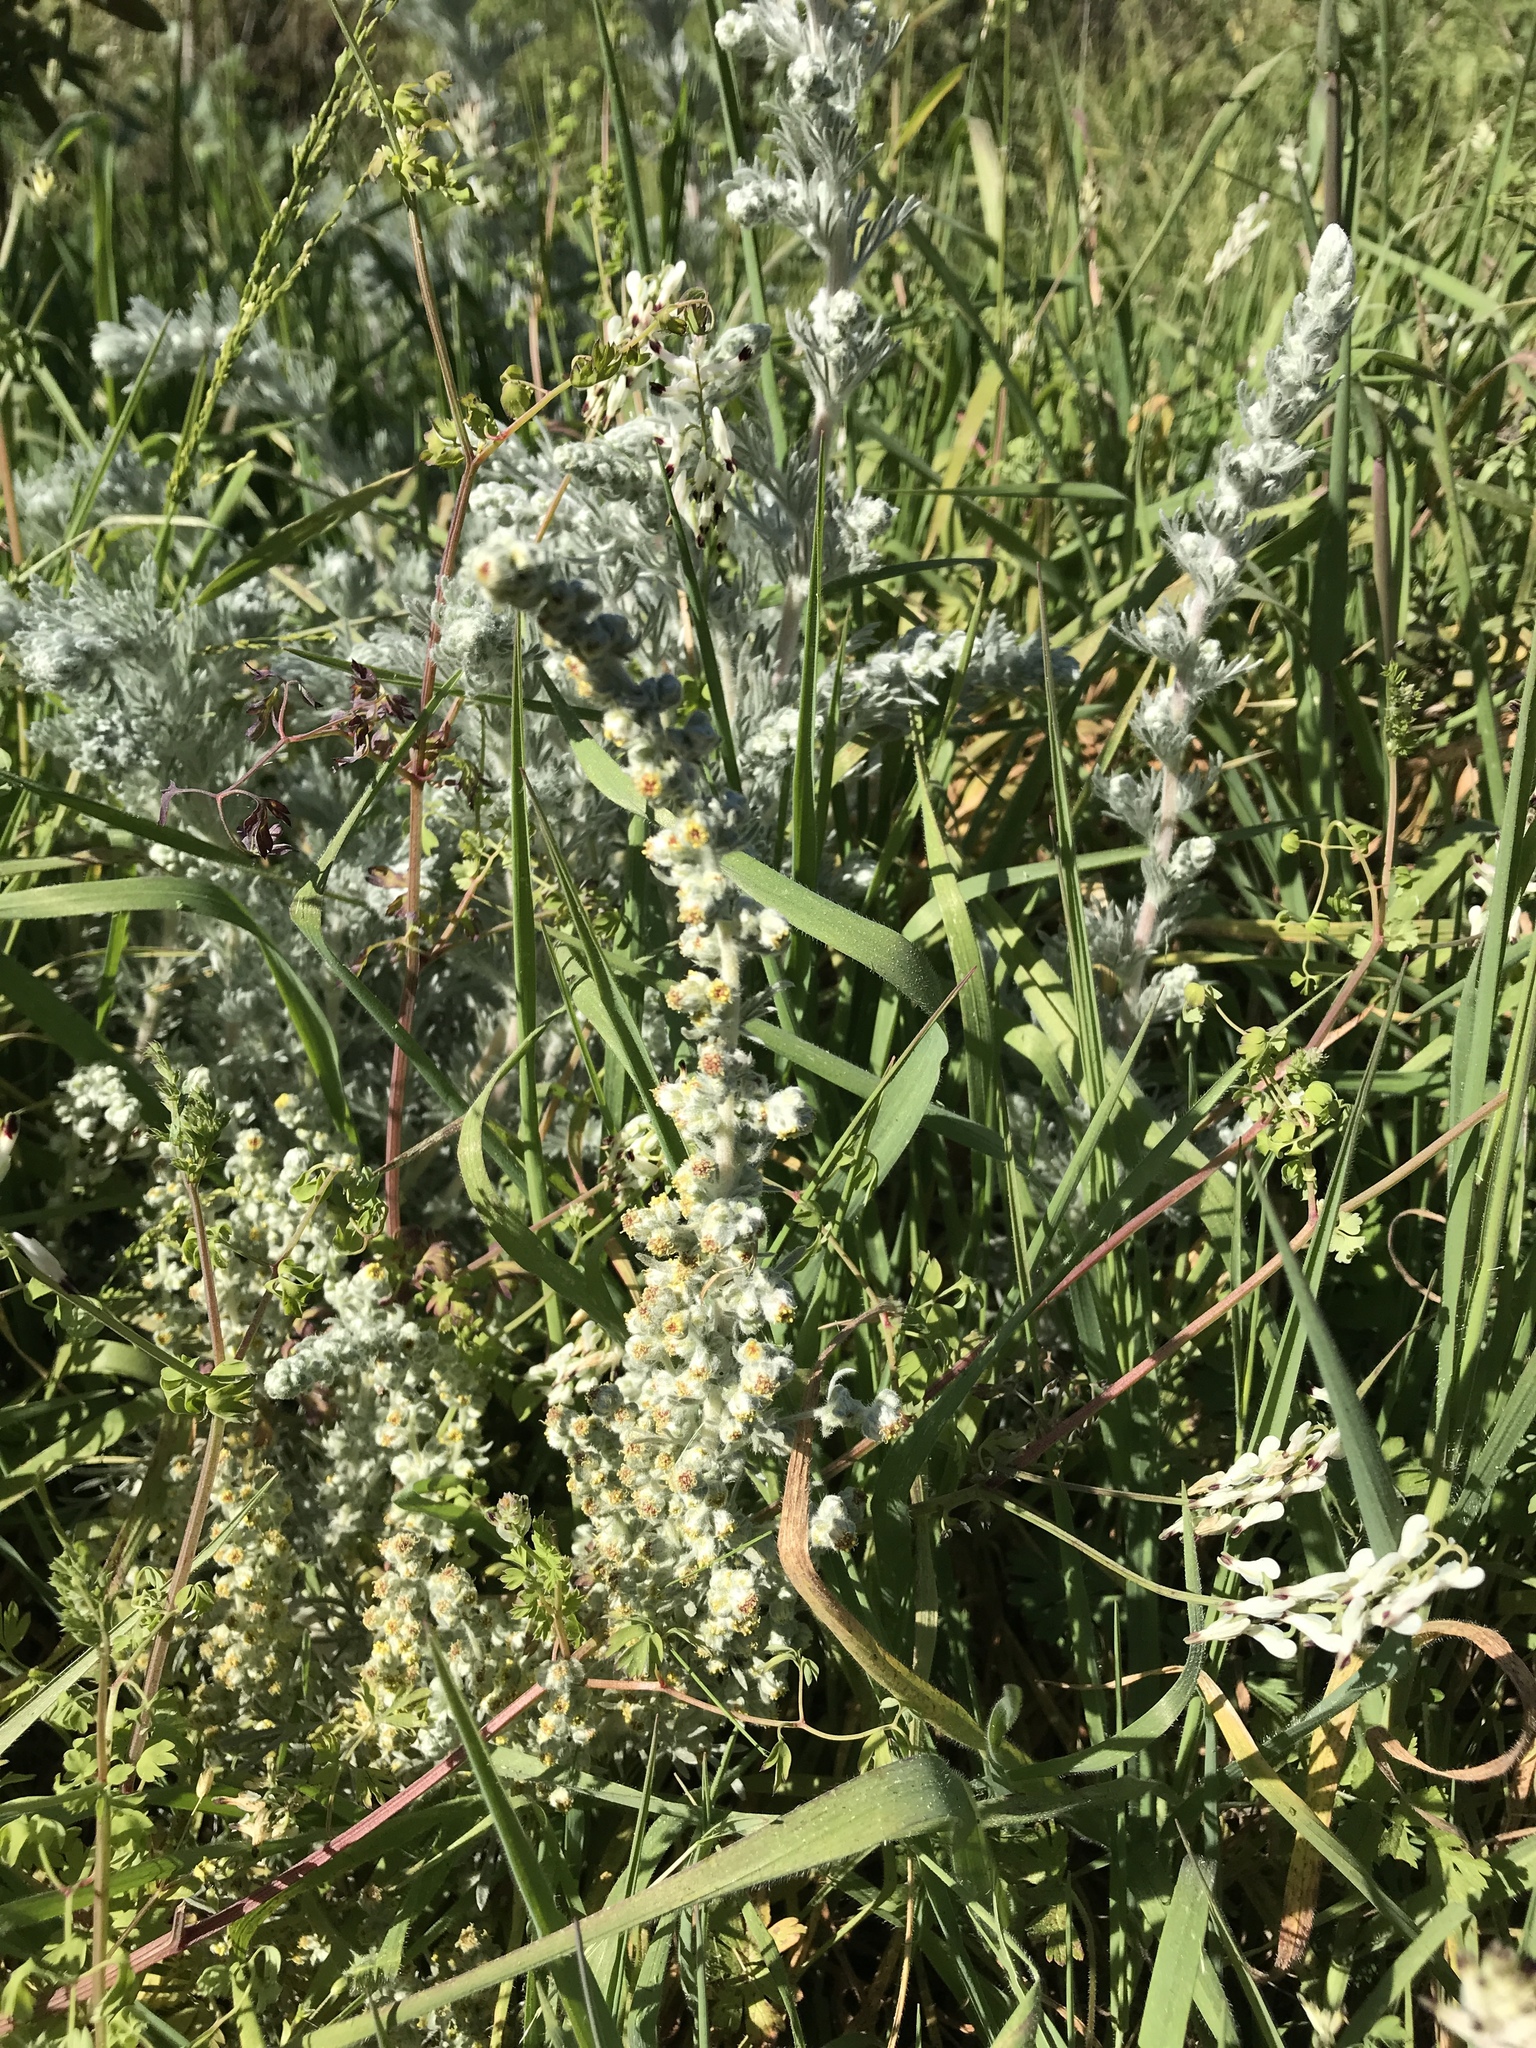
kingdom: Plantae
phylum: Tracheophyta
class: Magnoliopsida
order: Asterales
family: Asteraceae
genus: Artemisia
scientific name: Artemisia pycnocephala
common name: Coastal sagewort
